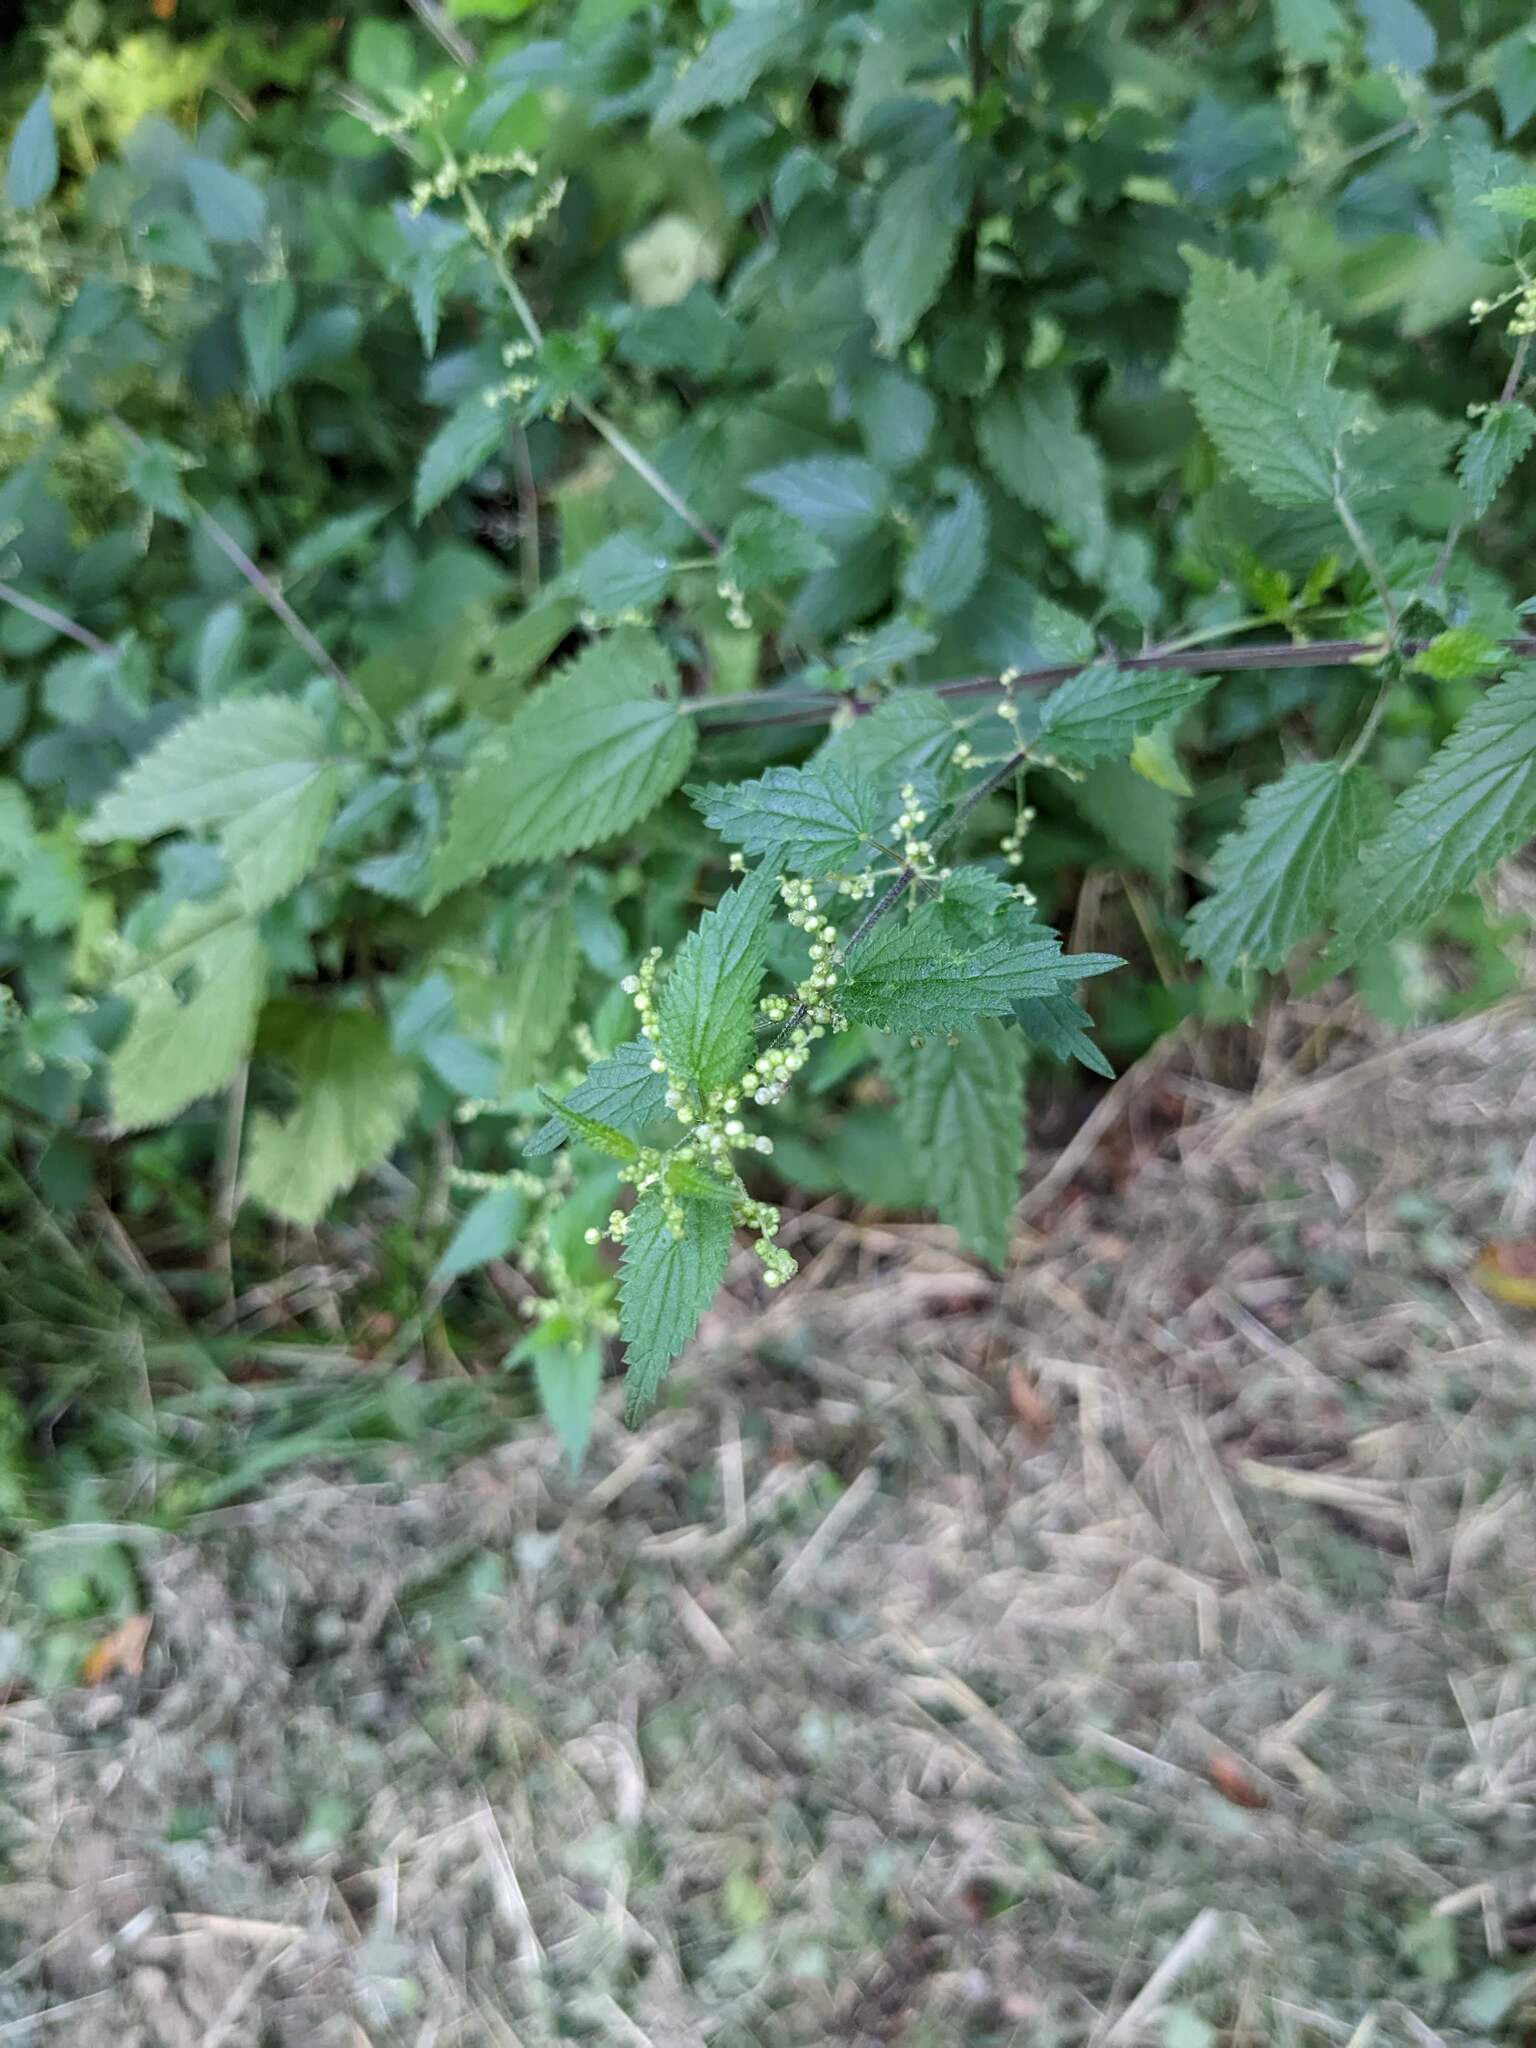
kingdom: Plantae
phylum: Tracheophyta
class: Magnoliopsida
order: Rosales
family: Urticaceae
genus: Urtica
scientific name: Urtica dioica
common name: Common nettle
